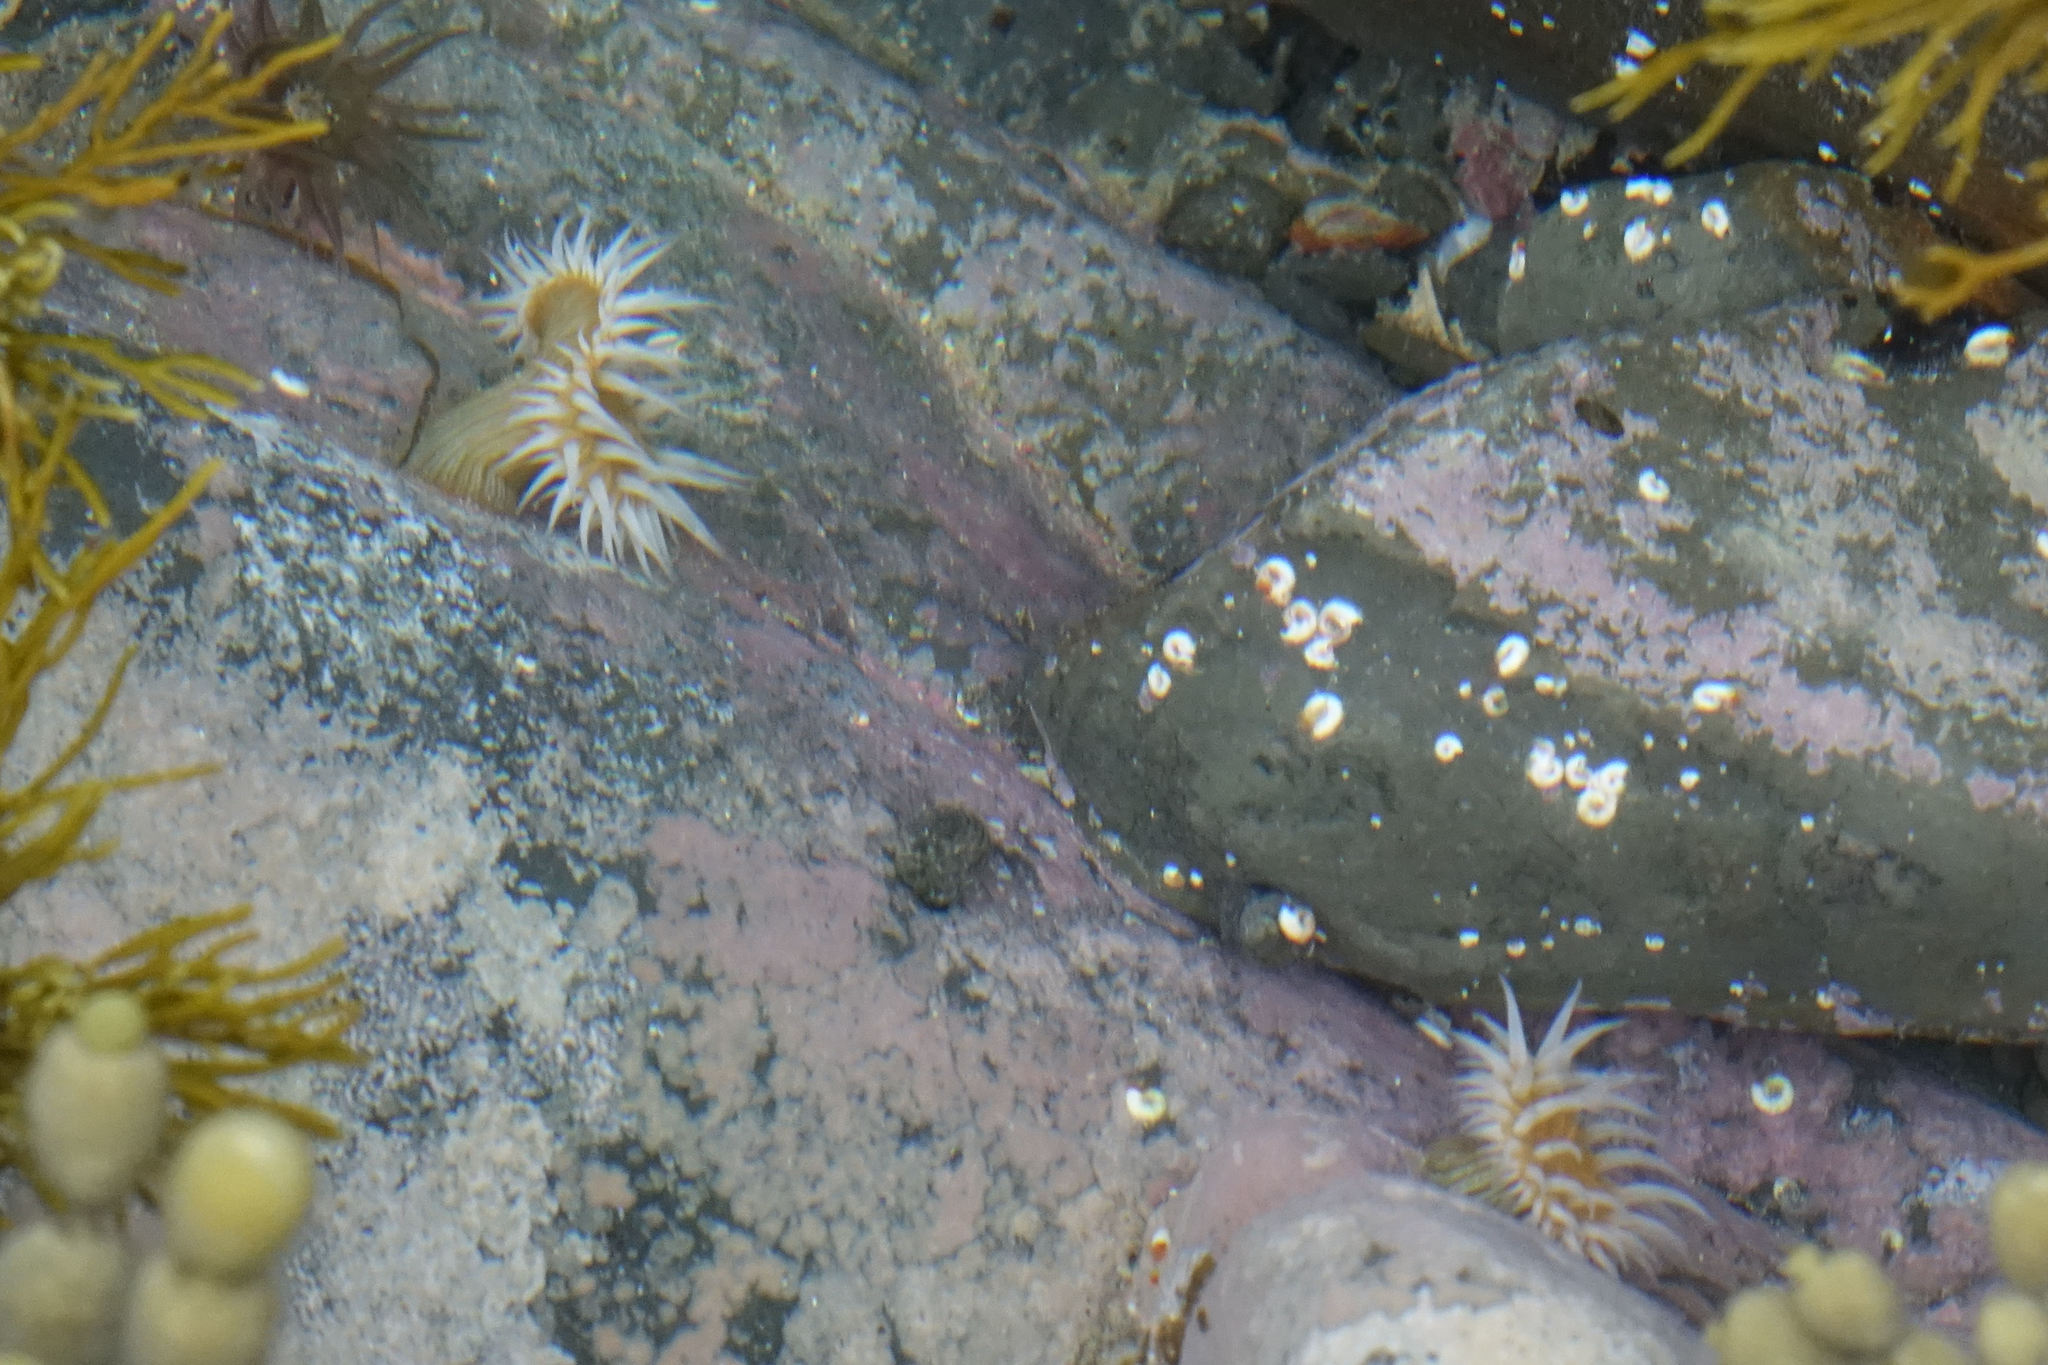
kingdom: Animalia
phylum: Cnidaria
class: Anthozoa
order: Actiniaria
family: Sagartiidae
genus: Anthothoe
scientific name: Anthothoe albocincta
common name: Orange striped anemone
